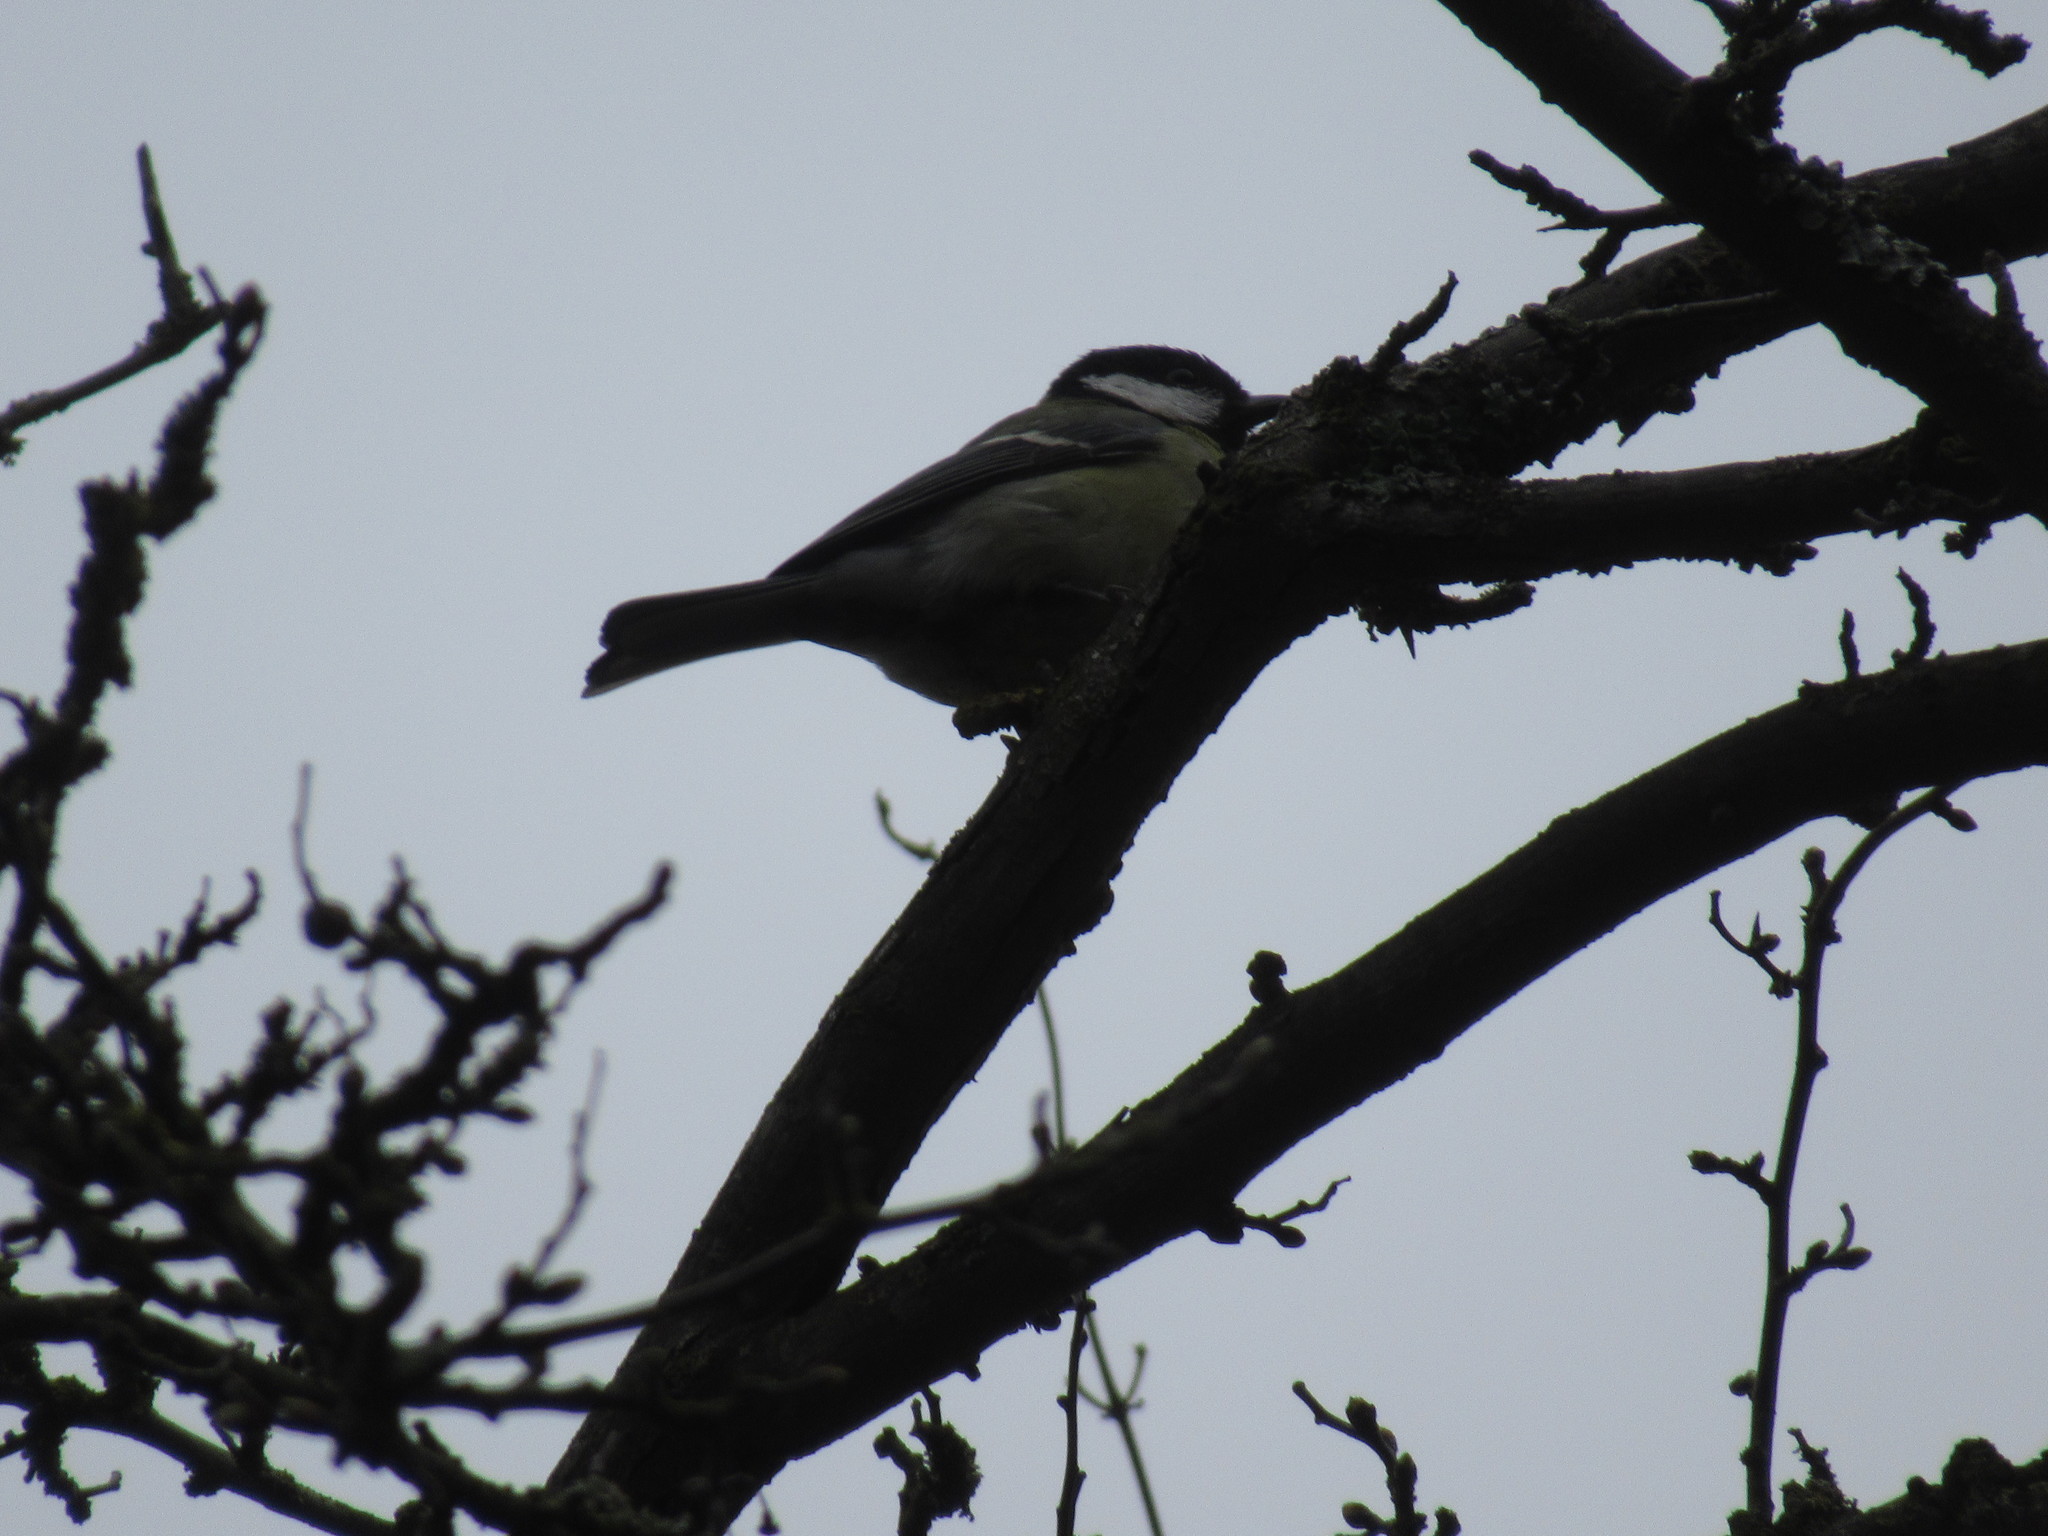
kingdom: Animalia
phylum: Chordata
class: Aves
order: Passeriformes
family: Paridae
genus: Parus
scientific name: Parus major
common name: Great tit
